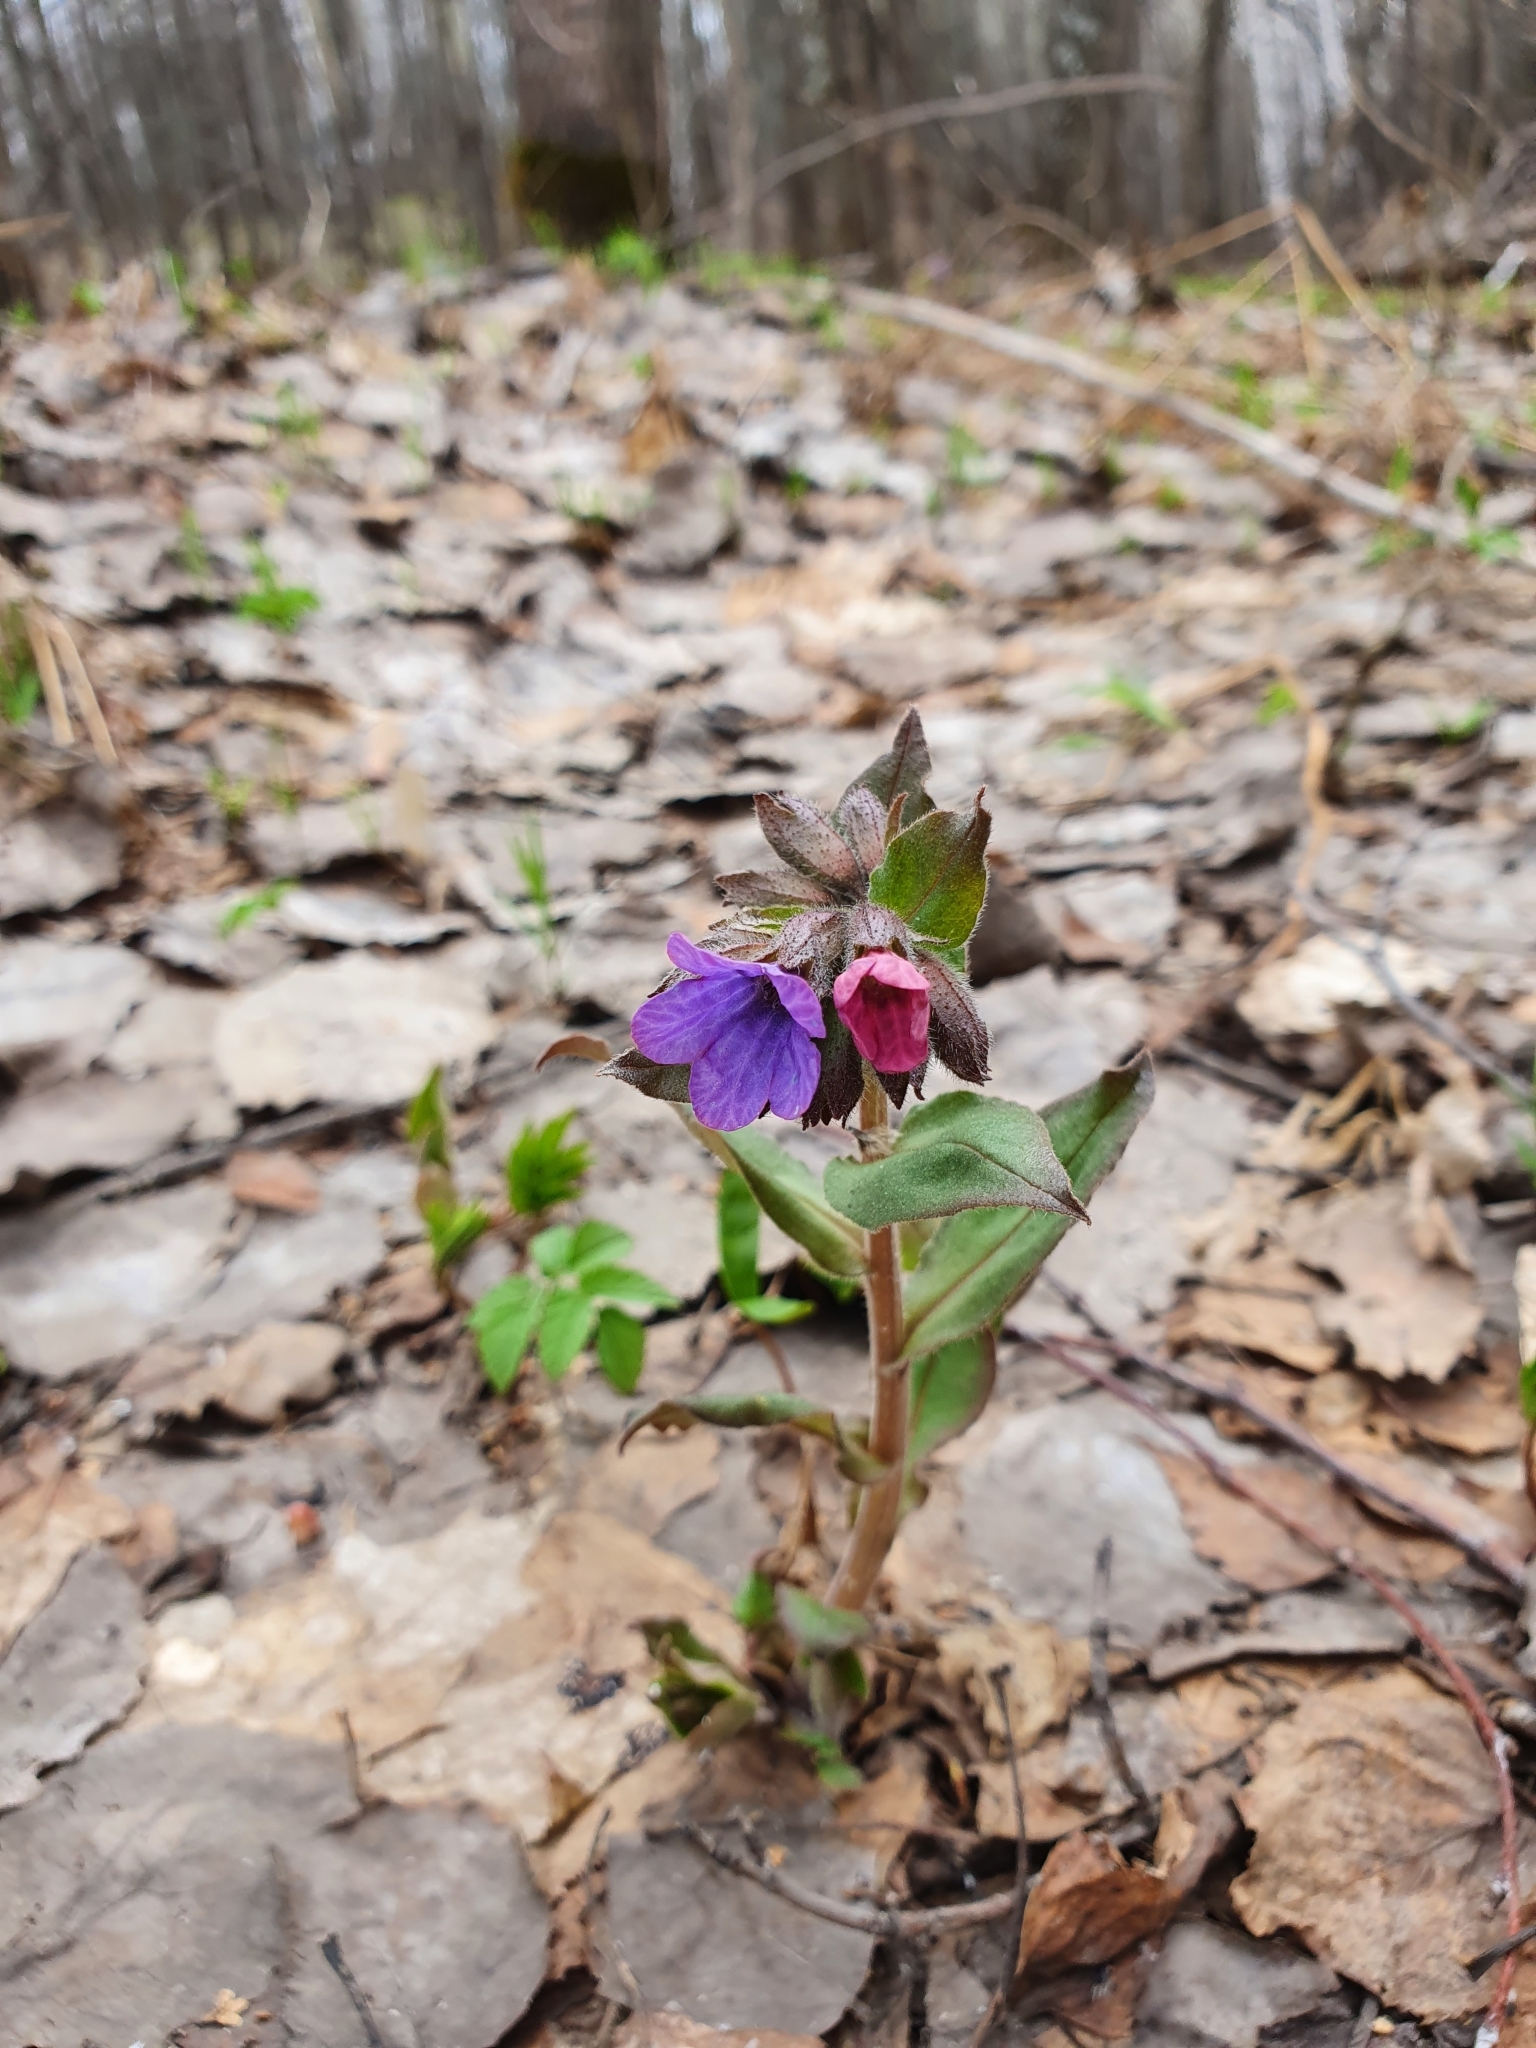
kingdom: Plantae
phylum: Tracheophyta
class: Magnoliopsida
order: Boraginales
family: Boraginaceae
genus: Pulmonaria
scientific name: Pulmonaria obscura
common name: Suffolk lungwort
